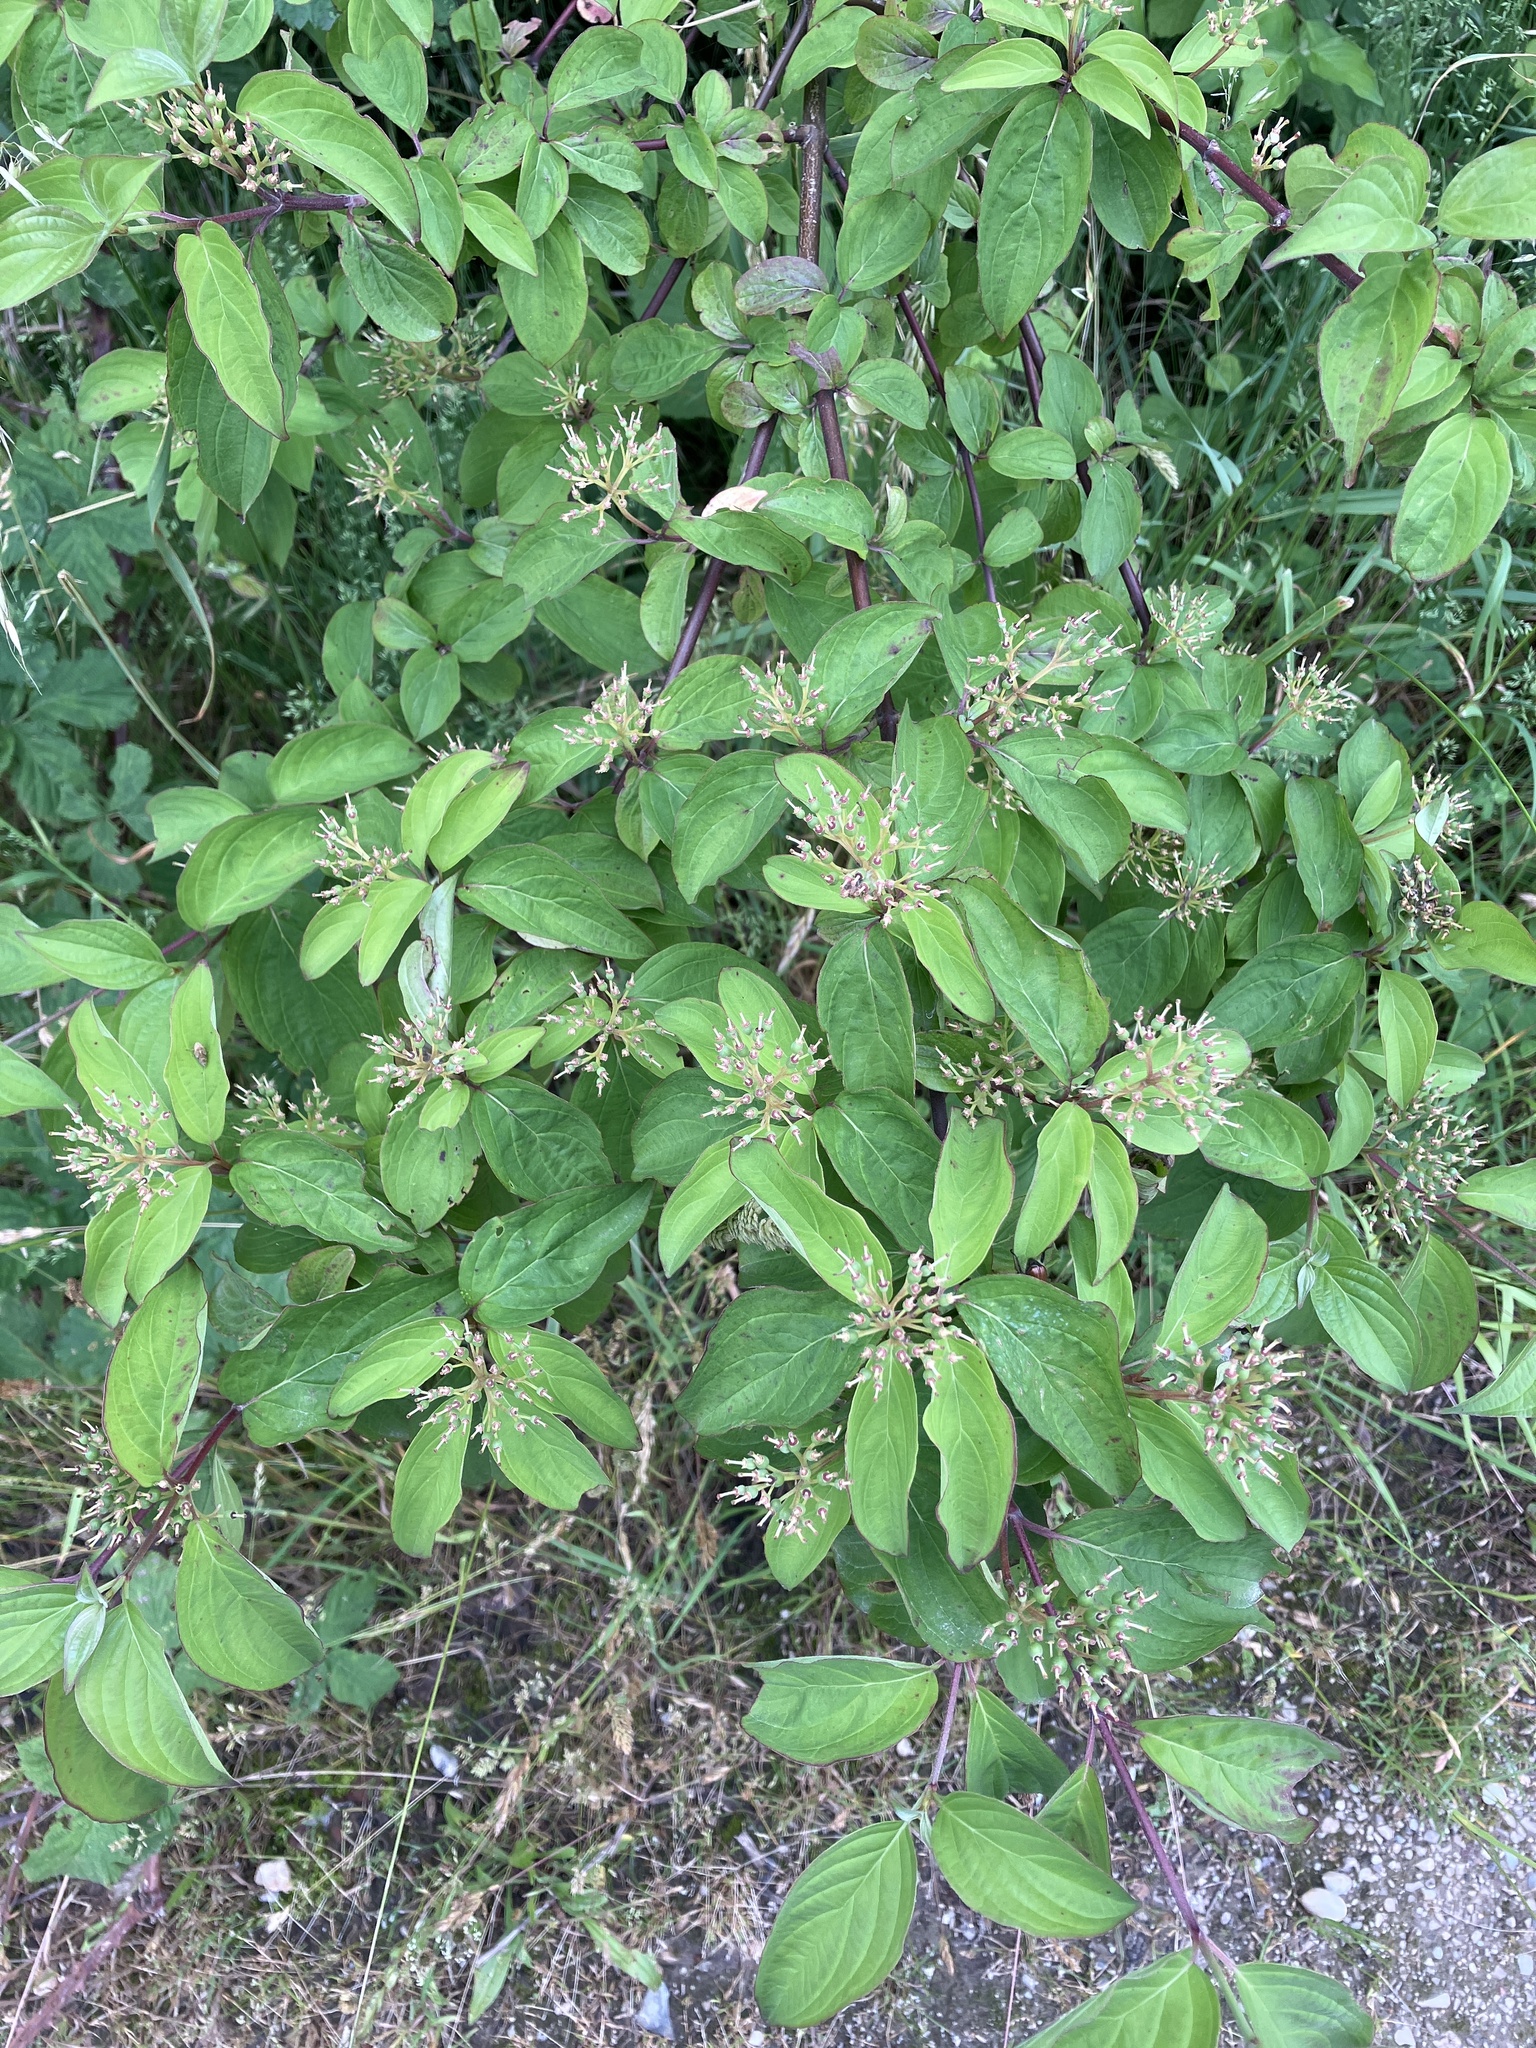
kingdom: Plantae
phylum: Tracheophyta
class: Magnoliopsida
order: Cornales
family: Cornaceae
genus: Cornus
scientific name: Cornus sanguinea
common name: Dogwood
